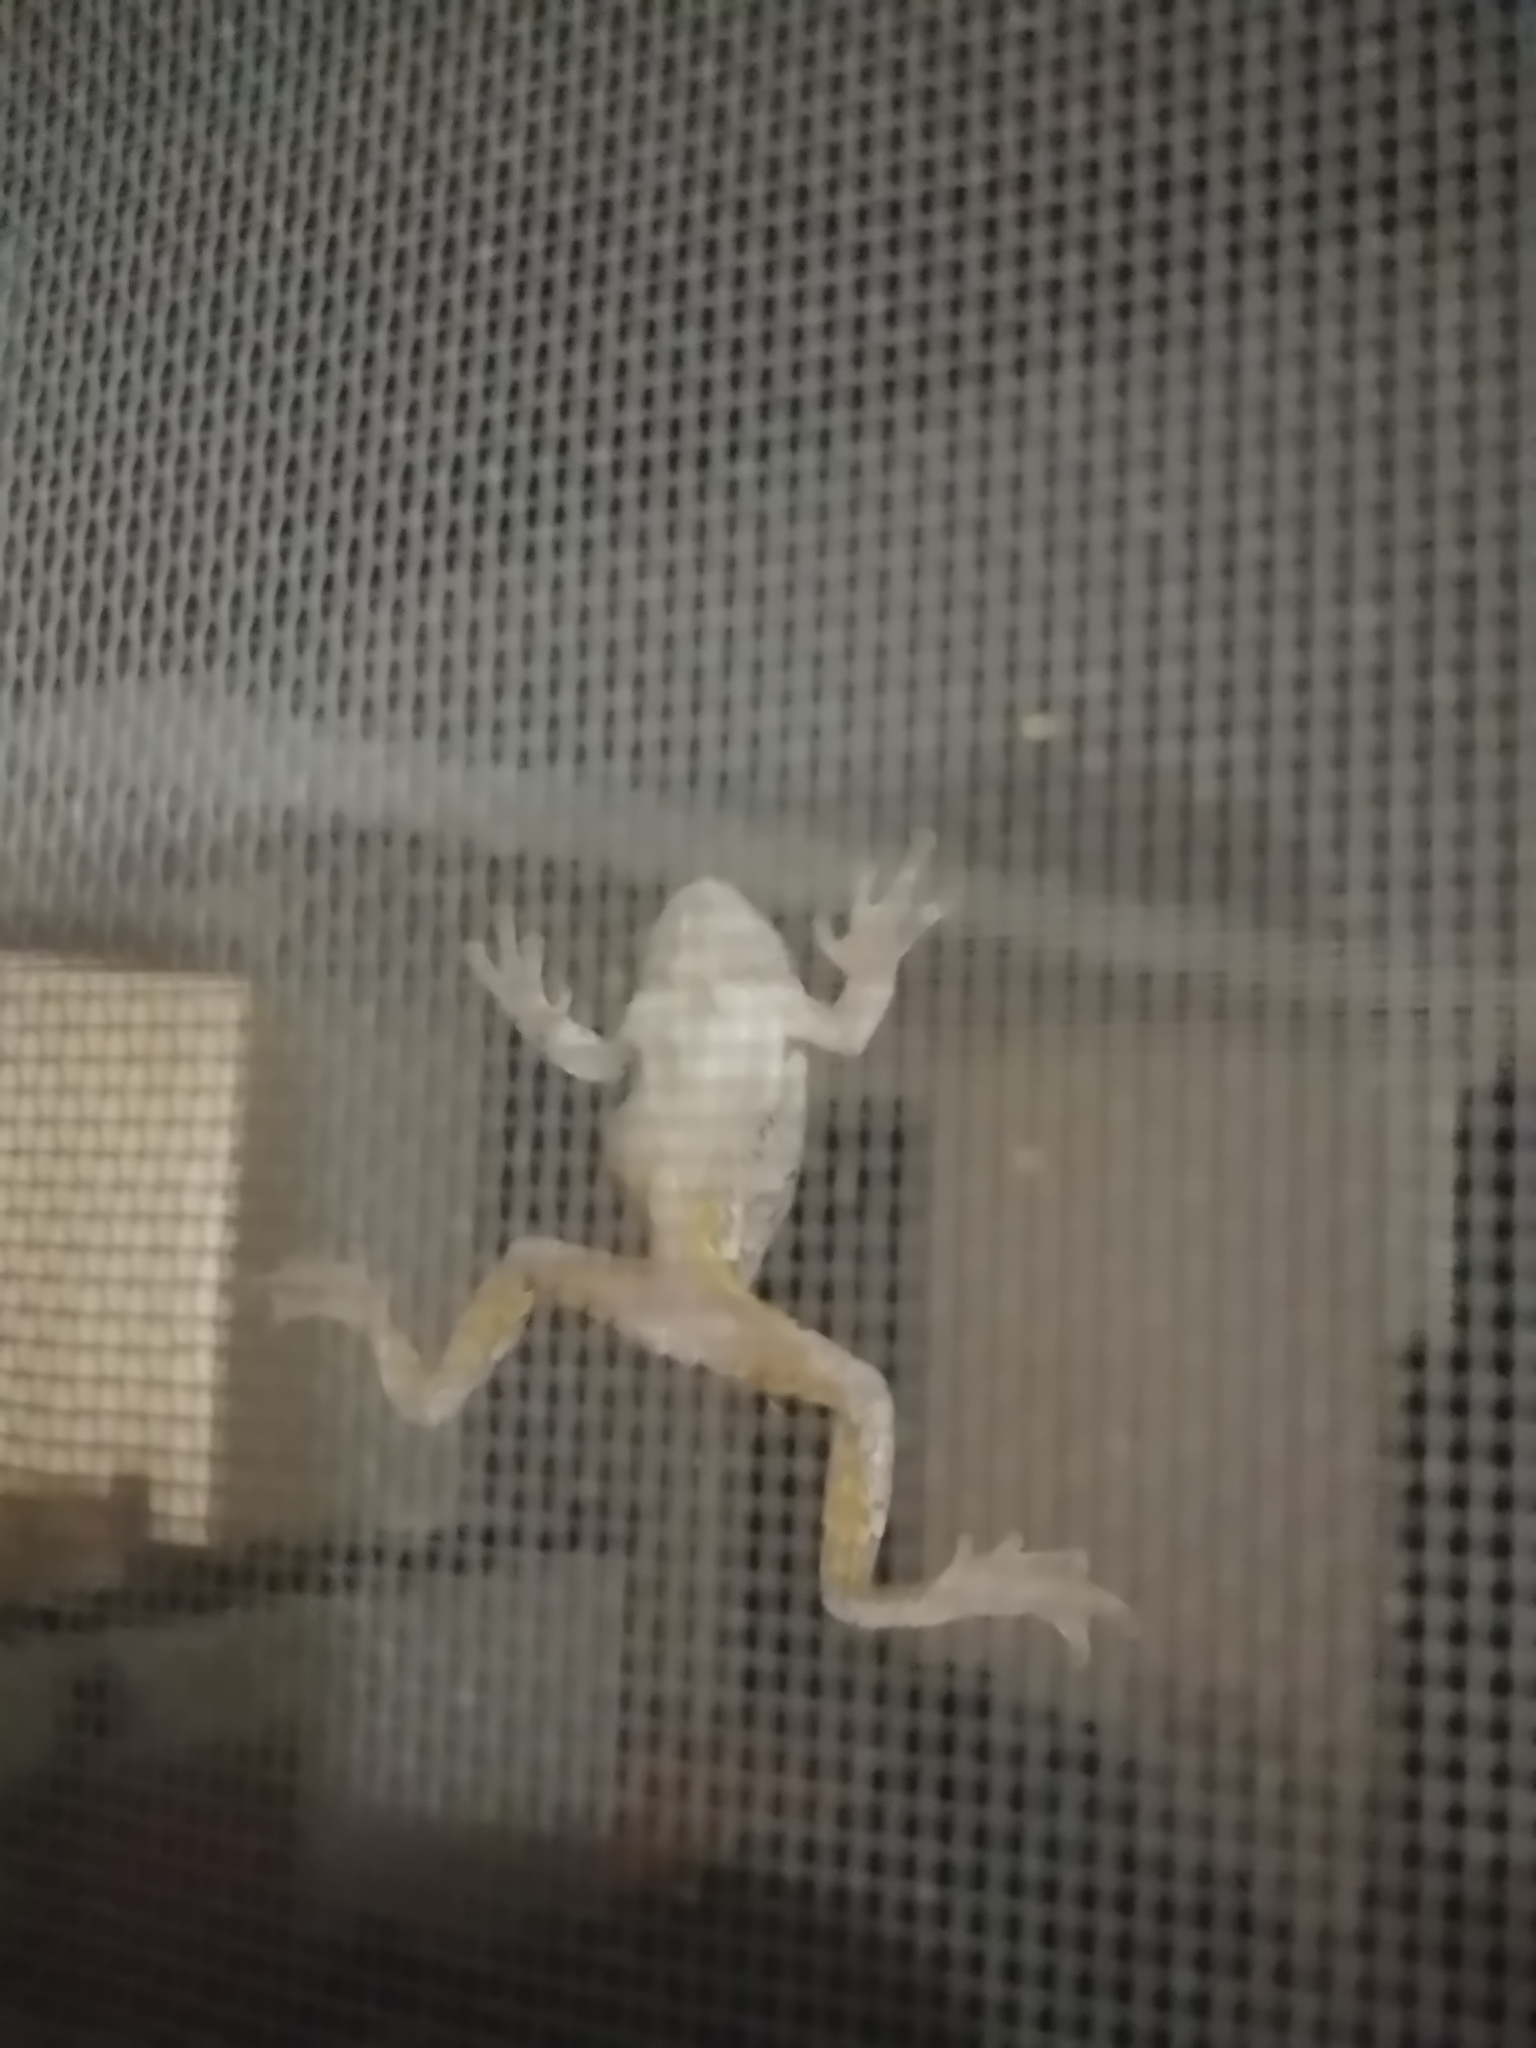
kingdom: Animalia
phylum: Chordata
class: Amphibia
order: Anura
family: Hylidae
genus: Dryophytes
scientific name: Dryophytes versicolor
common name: Gray treefrog
